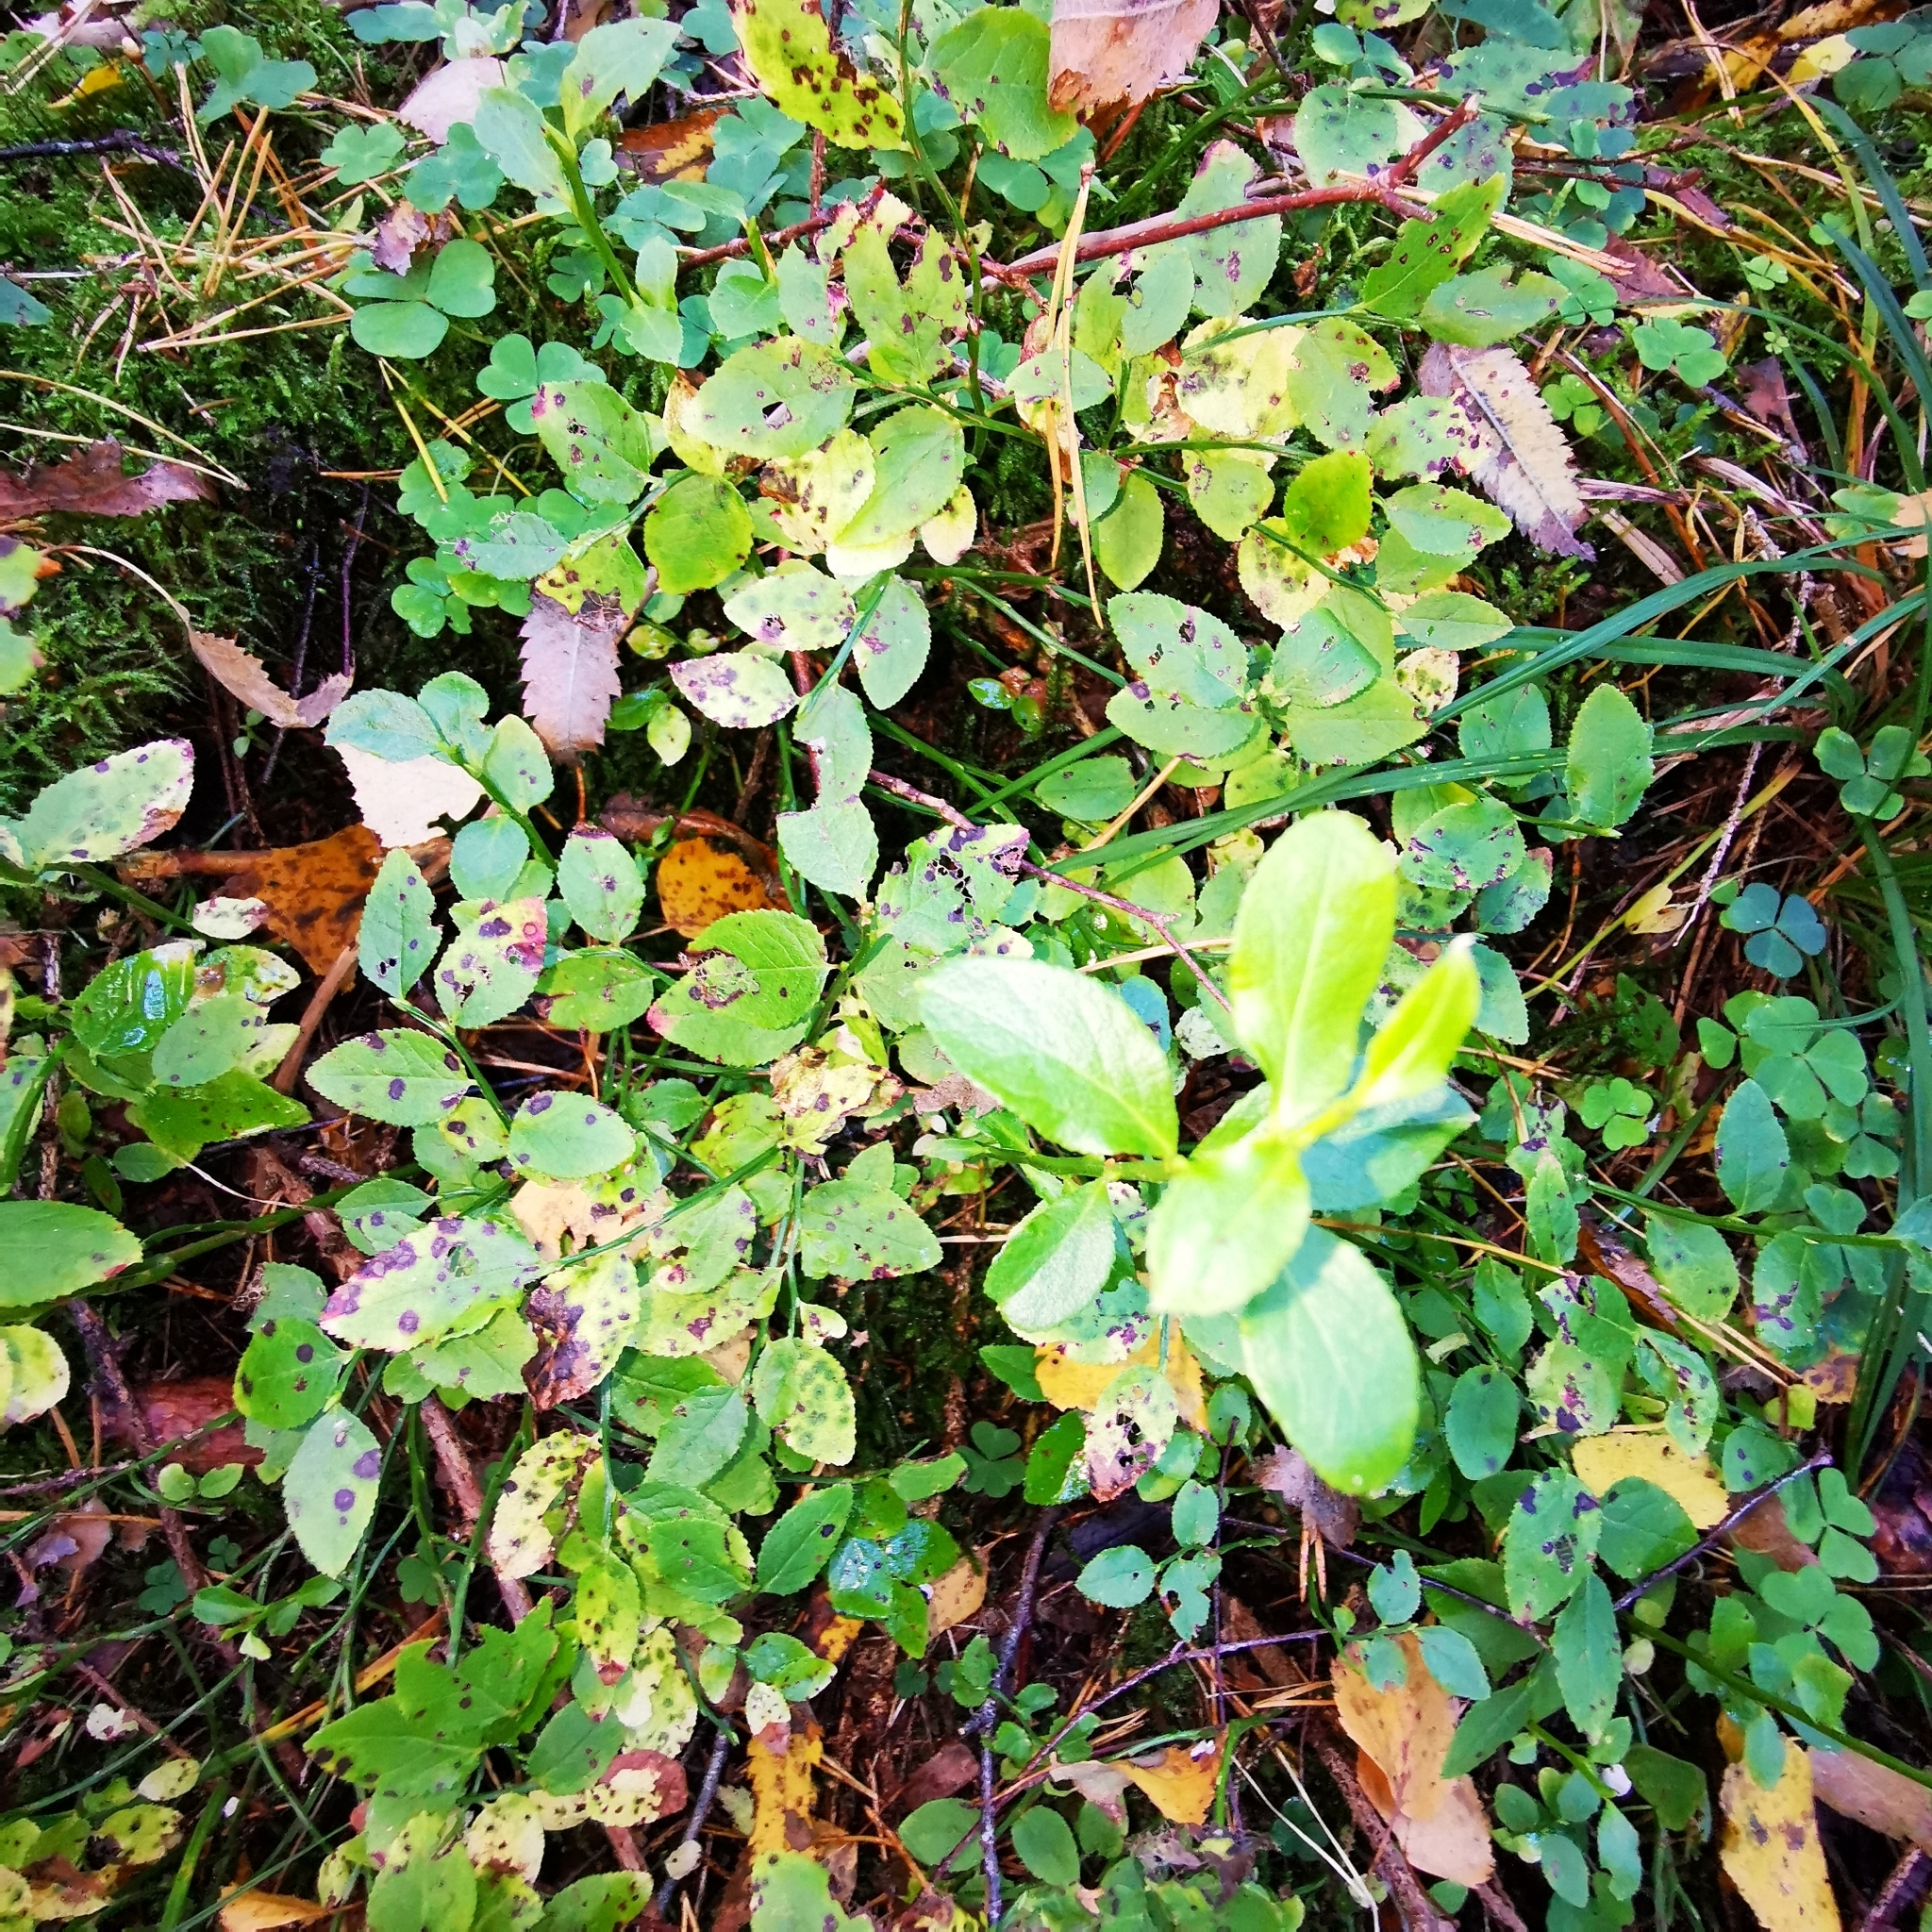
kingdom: Plantae
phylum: Tracheophyta
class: Magnoliopsida
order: Ericales
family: Ericaceae
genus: Vaccinium
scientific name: Vaccinium myrtillus
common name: Bilberry
